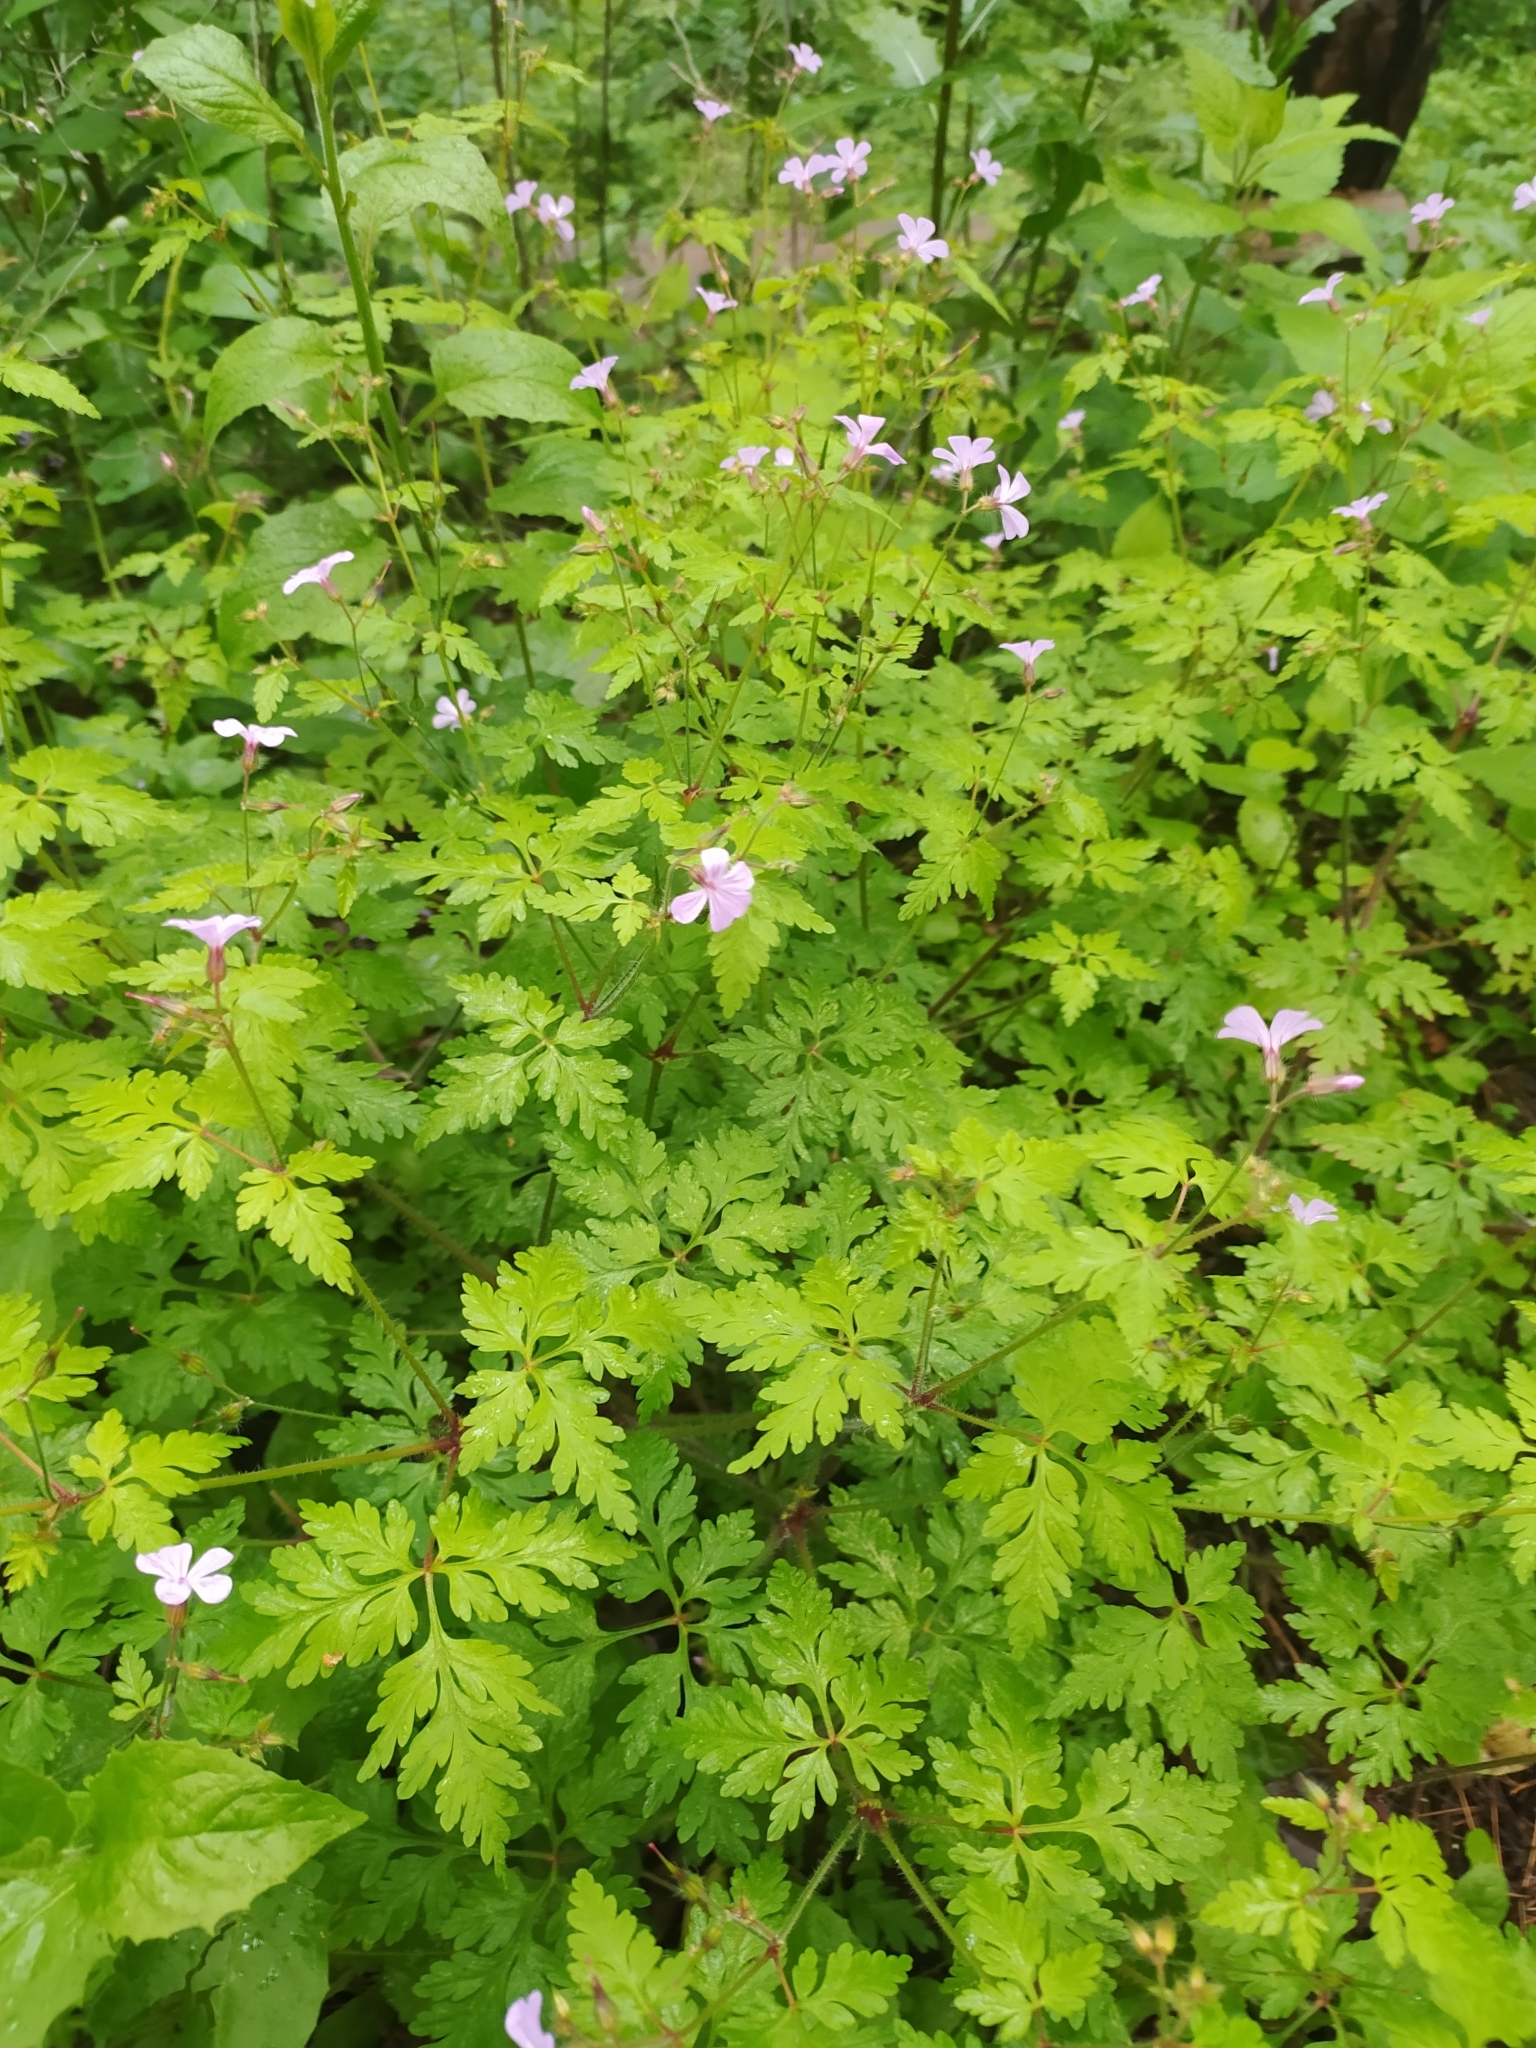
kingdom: Plantae
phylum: Tracheophyta
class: Magnoliopsida
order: Geraniales
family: Geraniaceae
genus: Geranium
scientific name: Geranium robertianum
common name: Herb-robert
